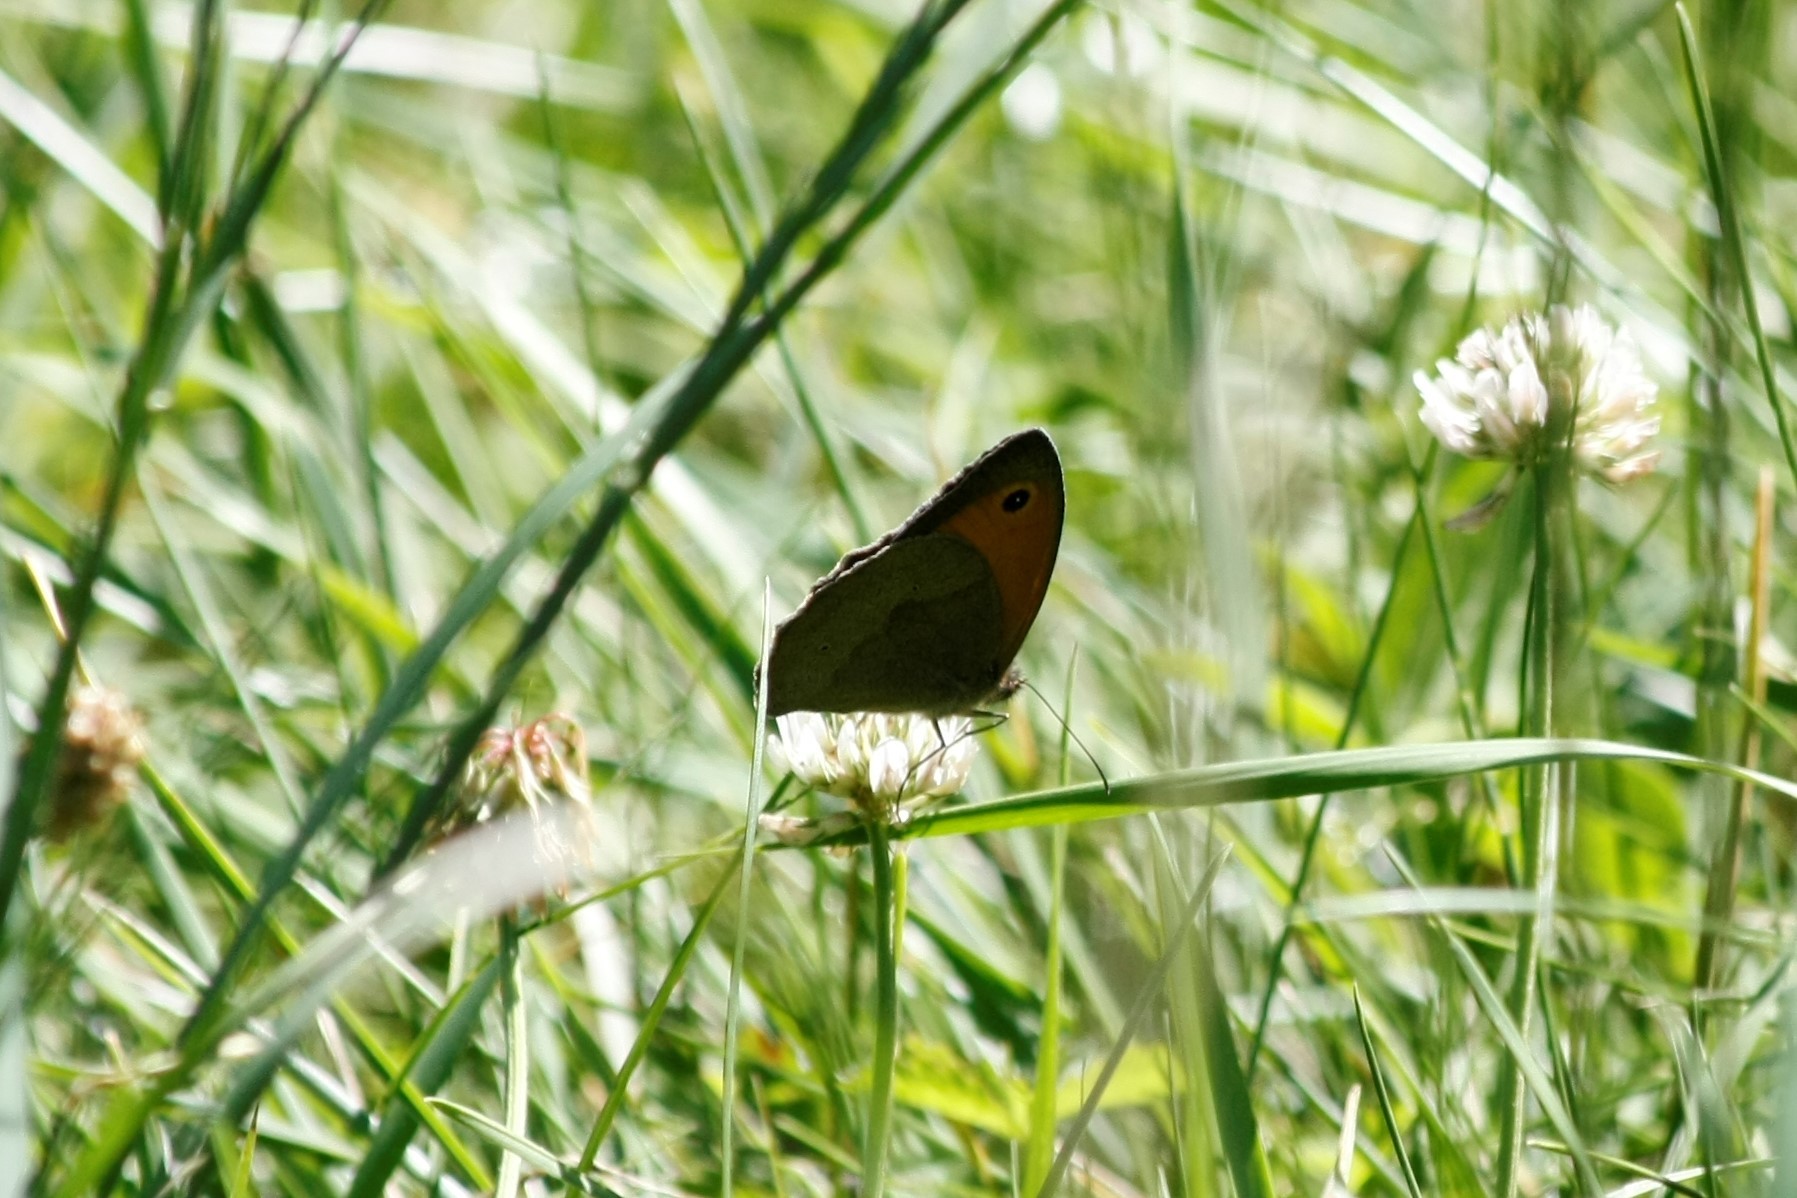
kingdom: Animalia
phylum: Arthropoda
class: Insecta
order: Lepidoptera
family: Nymphalidae
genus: Maniola
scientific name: Maniola jurtina
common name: Meadow brown
